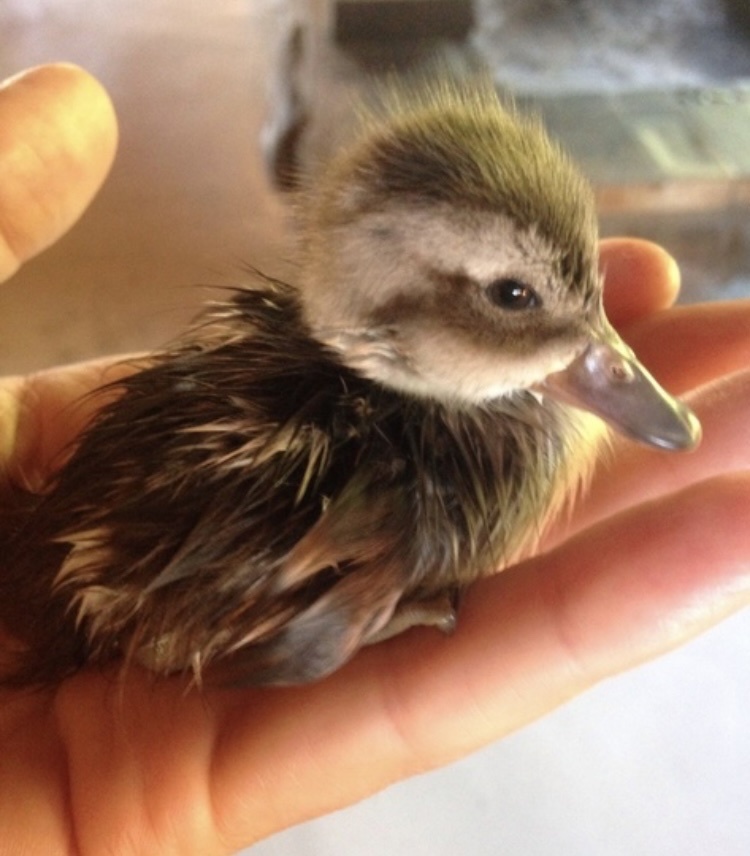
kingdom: Animalia
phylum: Chordata
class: Aves
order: Anseriformes
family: Anatidae
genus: Anas
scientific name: Anas capensis
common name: Cape teal
